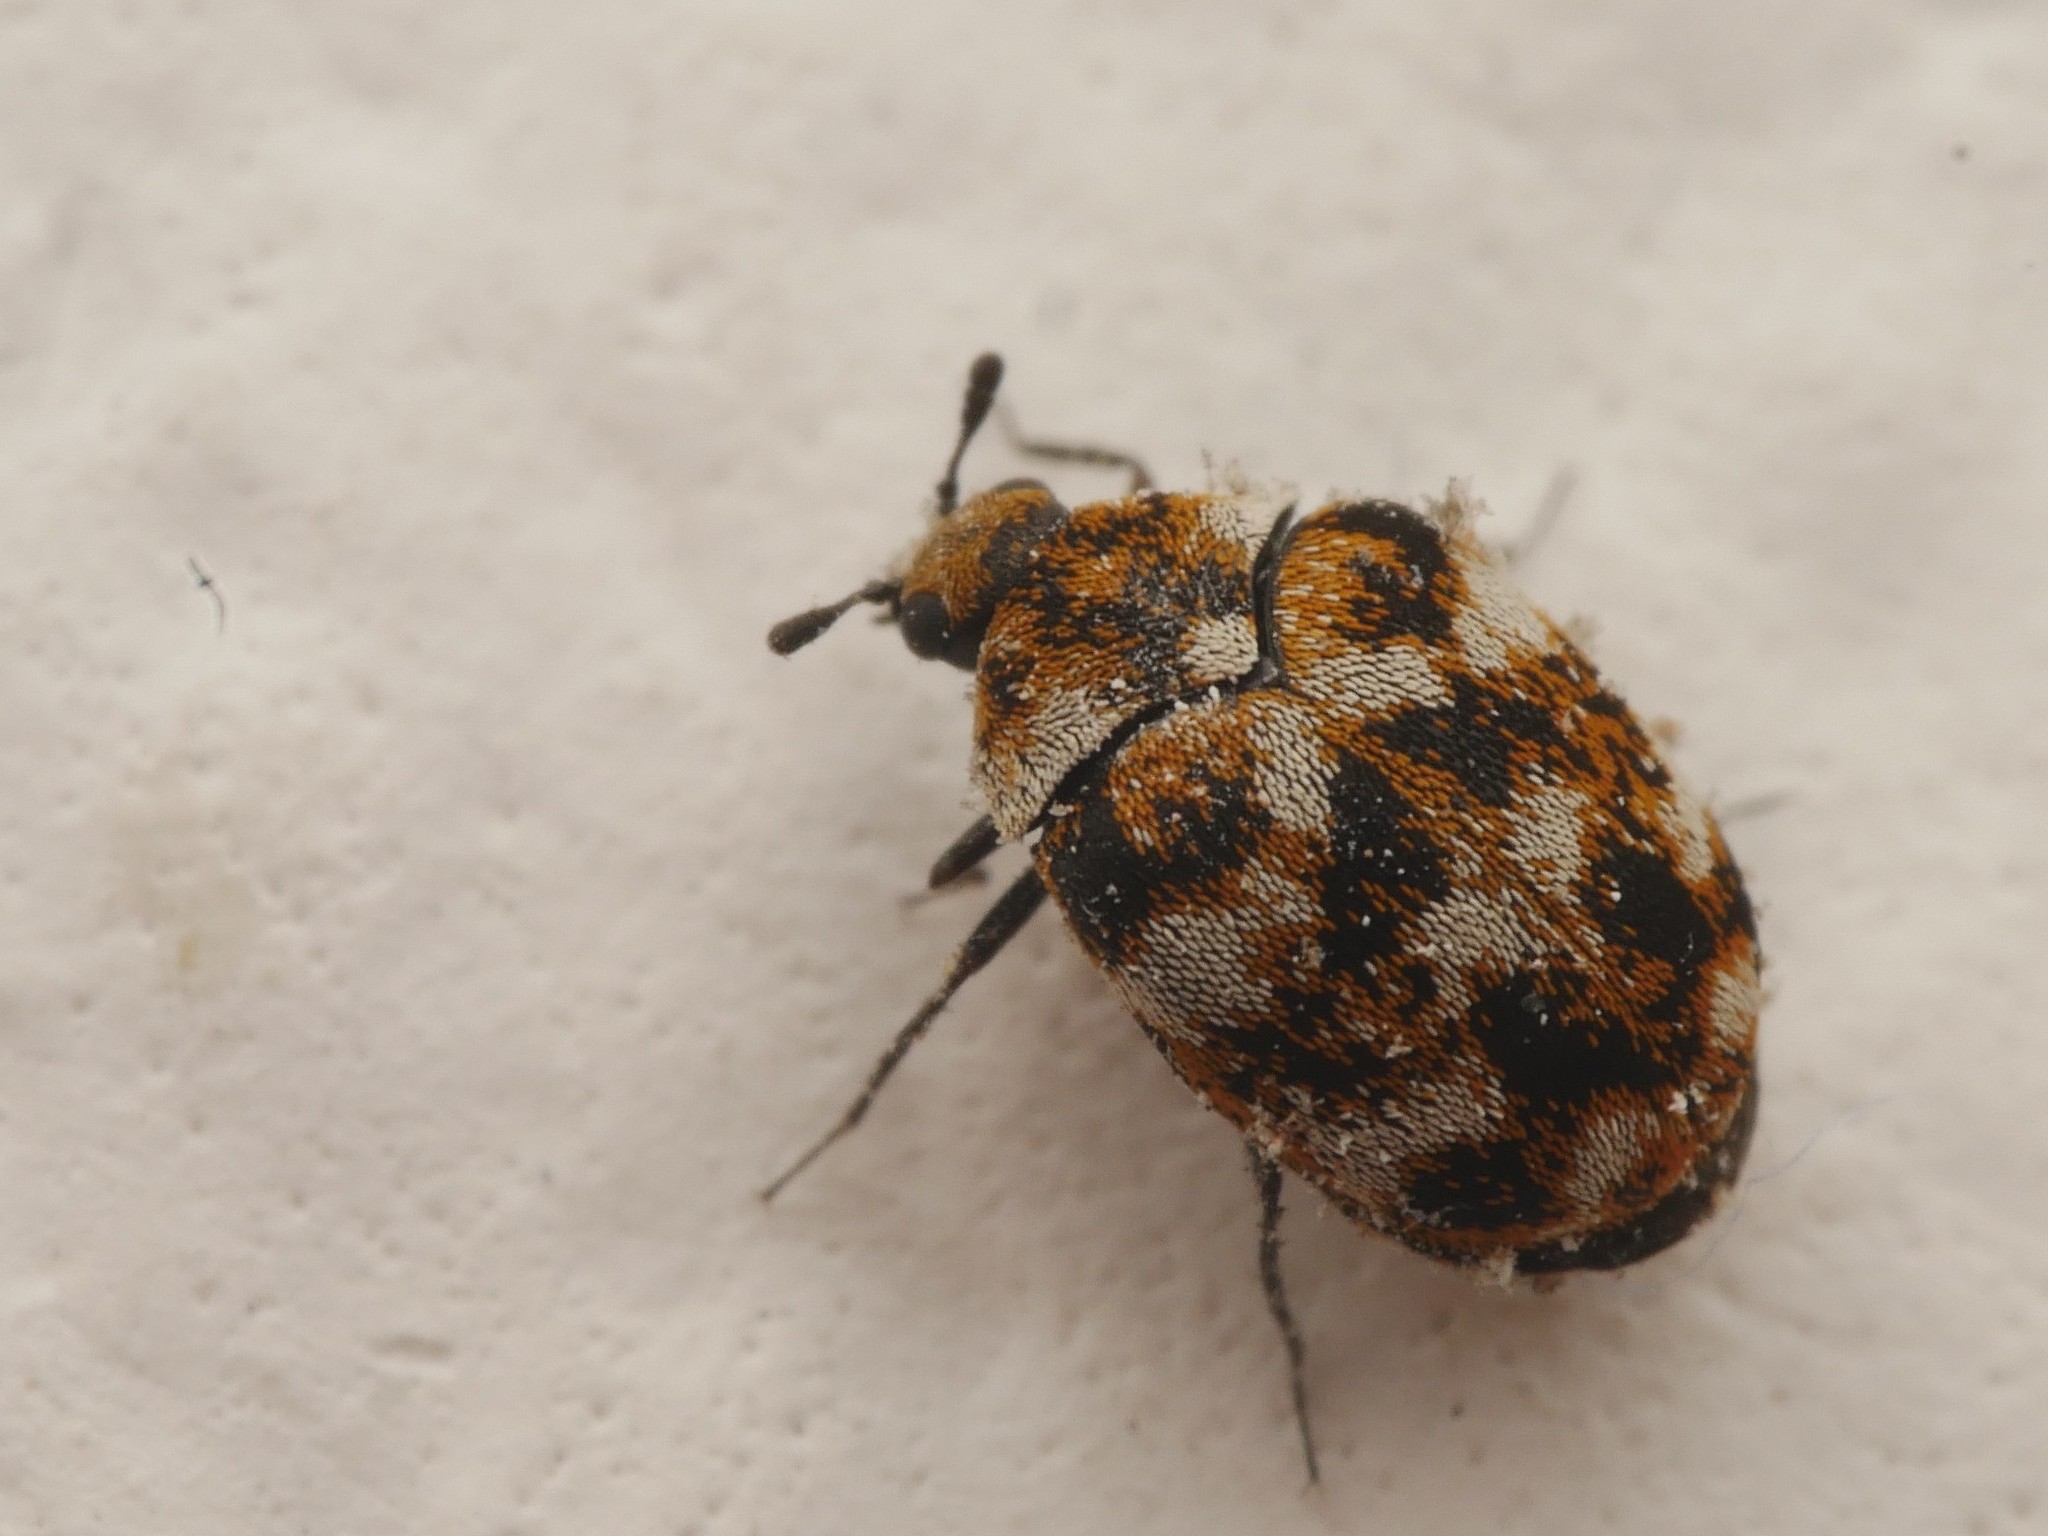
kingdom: Animalia
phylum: Arthropoda
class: Insecta
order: Coleoptera
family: Dermestidae
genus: Anthrenus
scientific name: Anthrenus verbasci
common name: Varied carpet beetle
